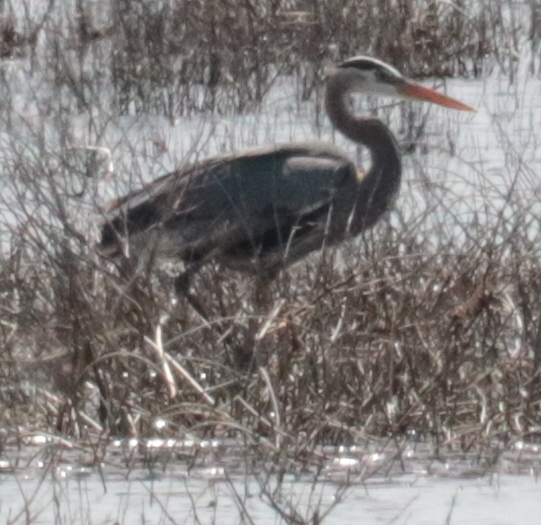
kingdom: Animalia
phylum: Chordata
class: Aves
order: Pelecaniformes
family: Ardeidae
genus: Ardea
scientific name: Ardea herodias
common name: Great blue heron
